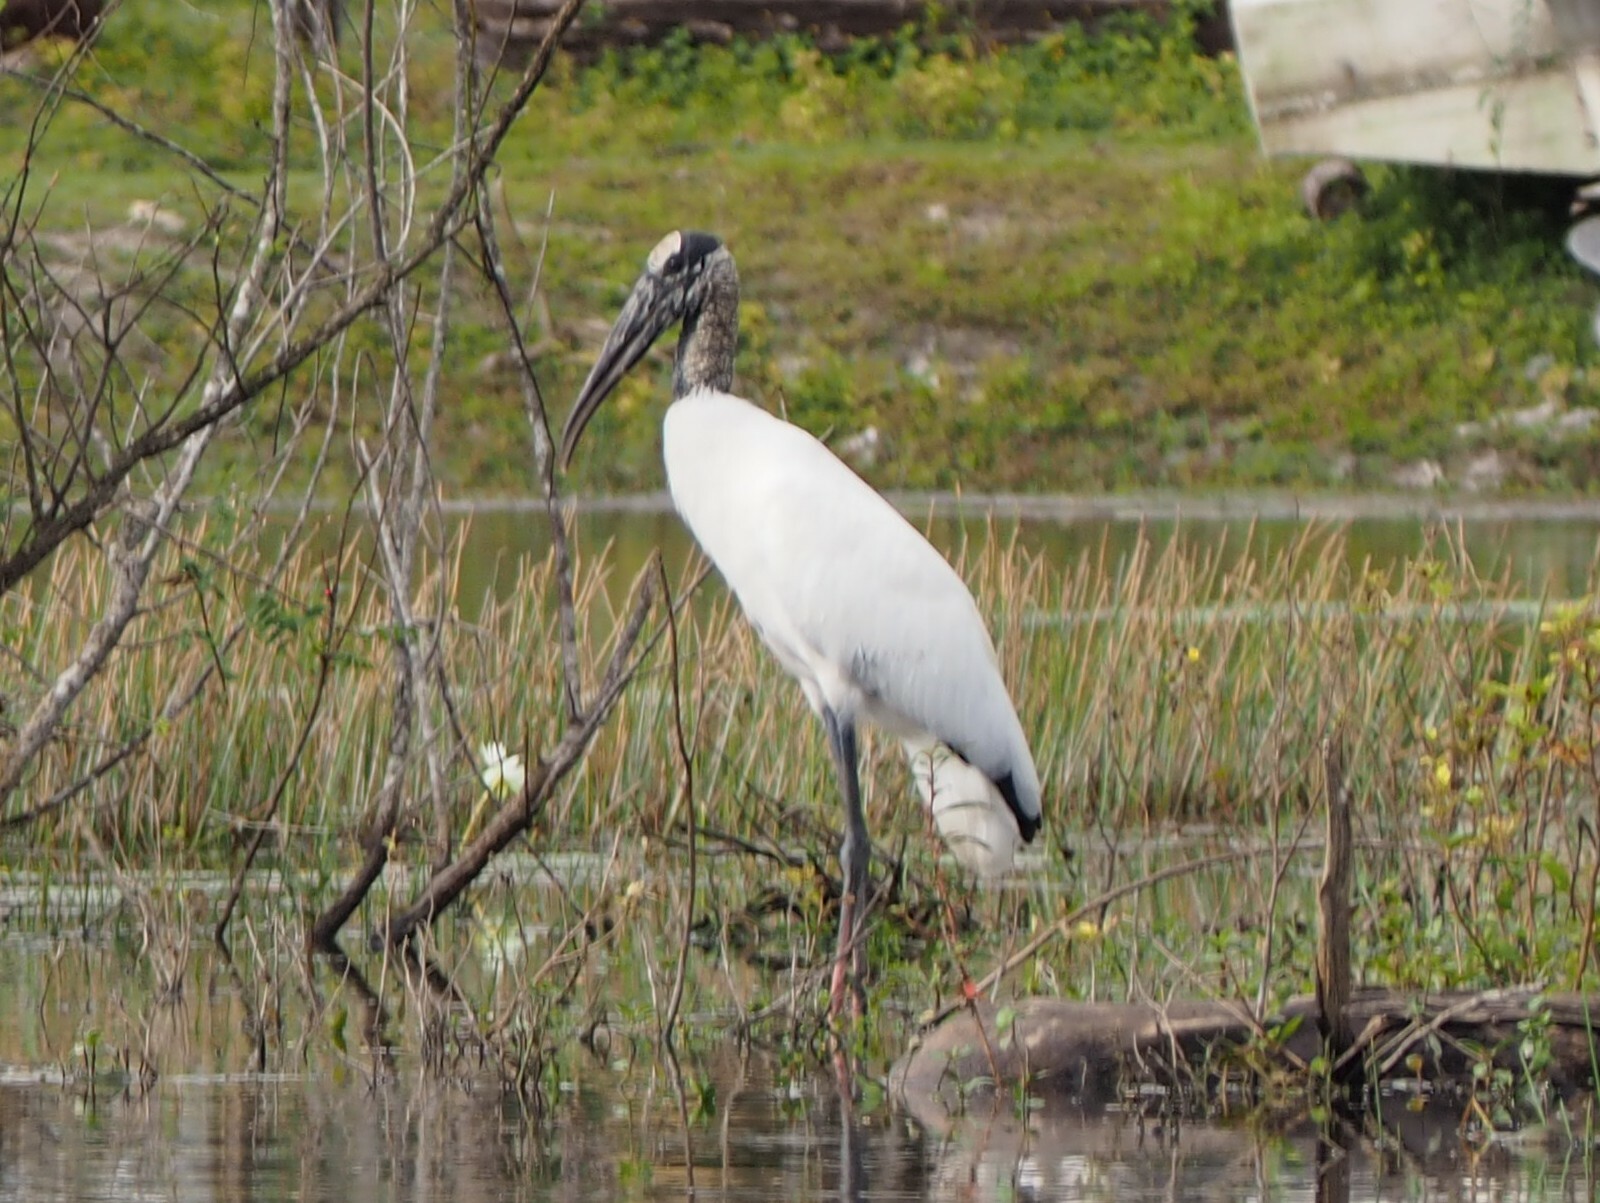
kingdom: Animalia
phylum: Chordata
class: Aves
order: Ciconiiformes
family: Ciconiidae
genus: Mycteria
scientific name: Mycteria americana
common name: Wood stork
